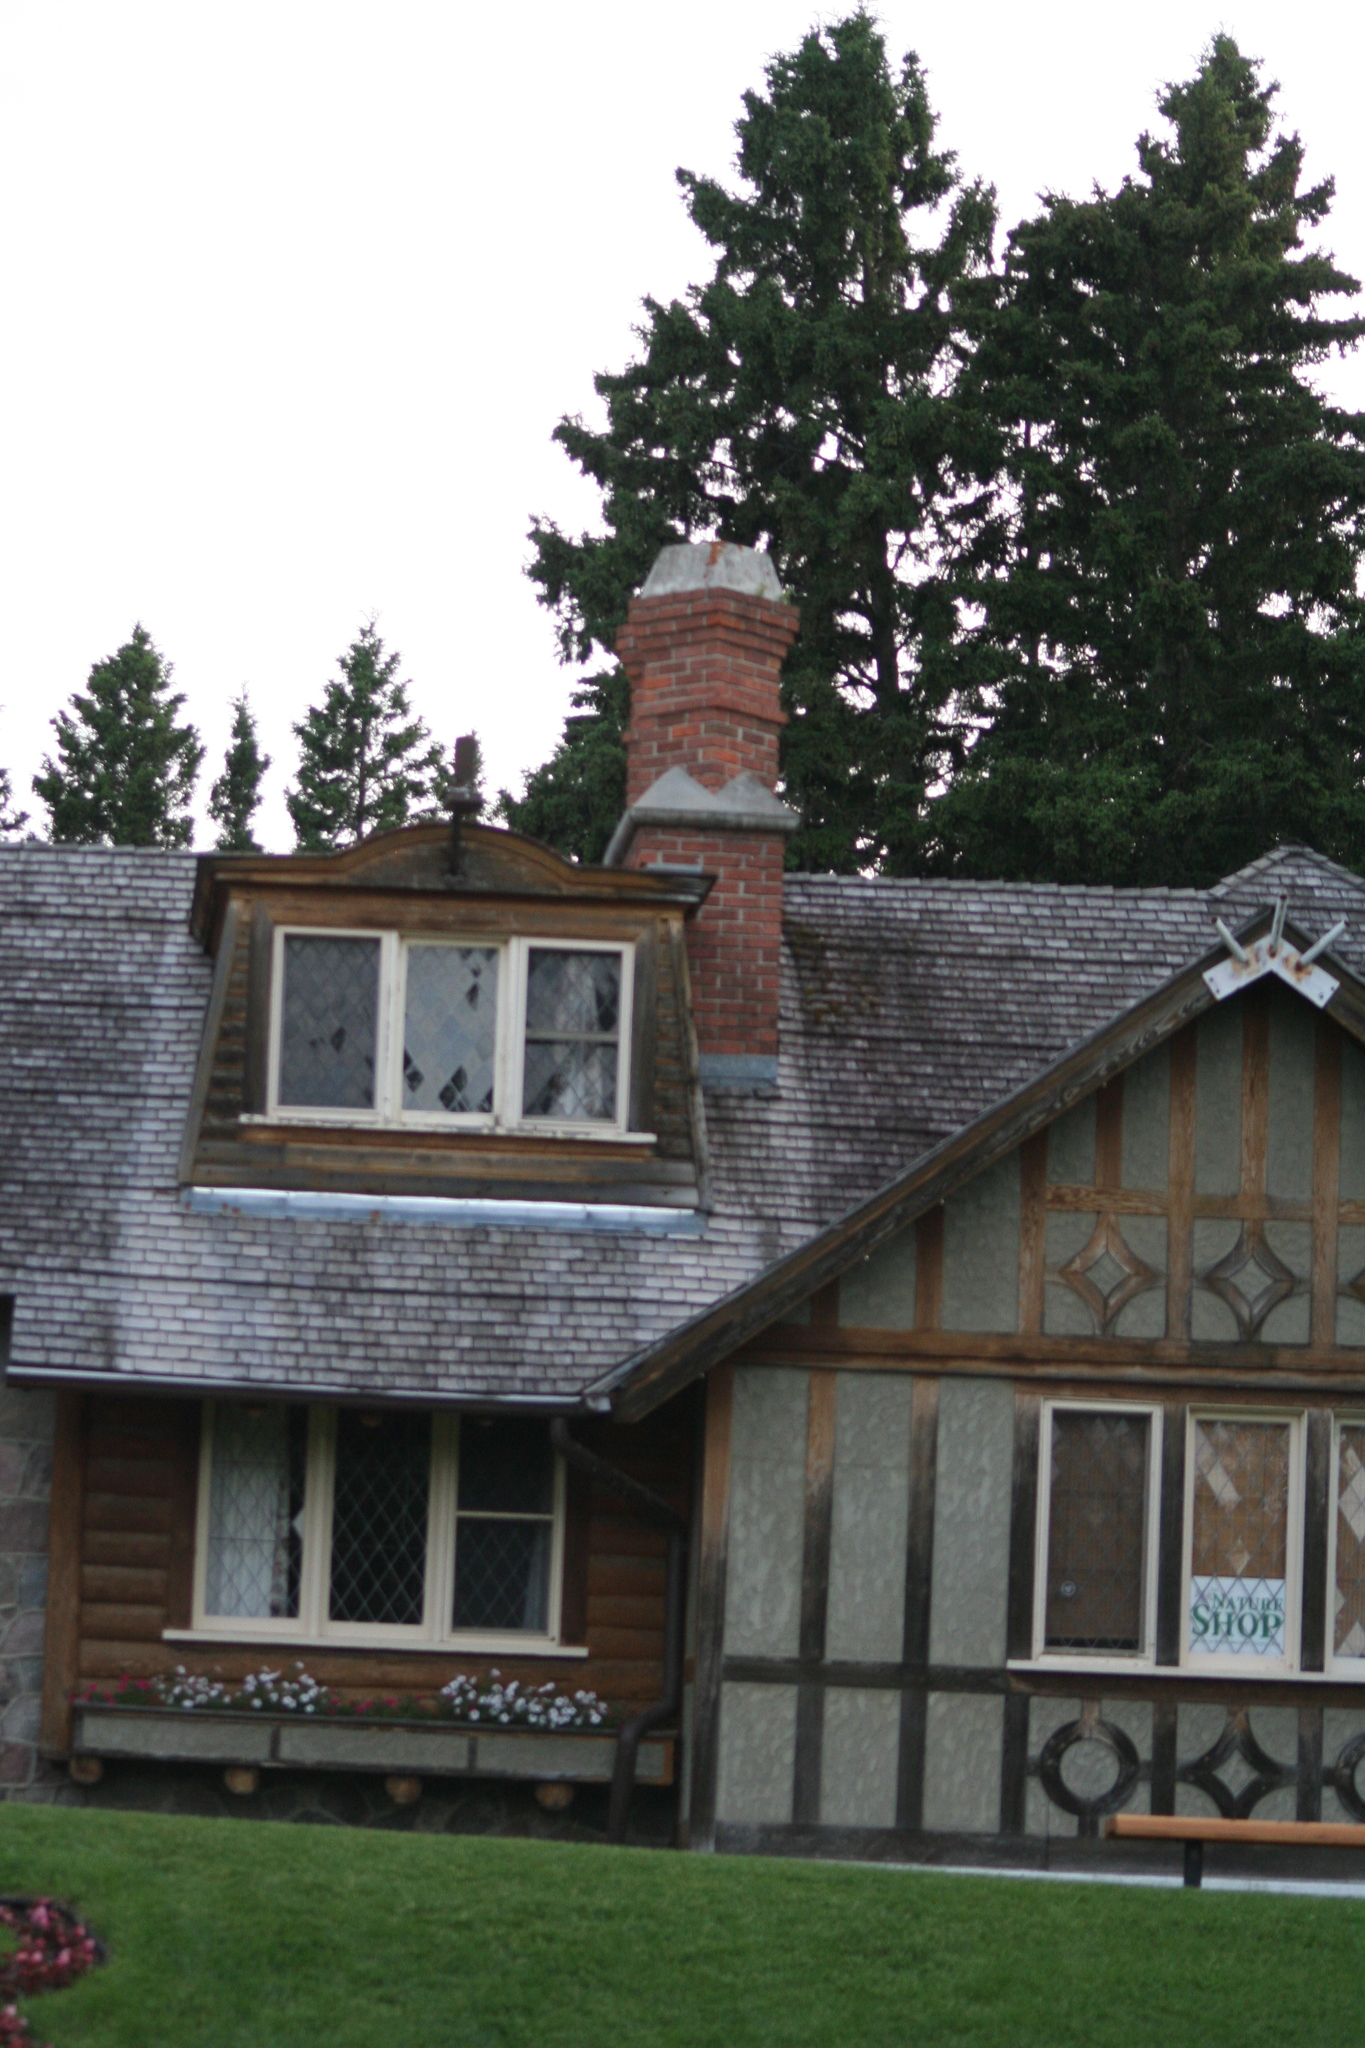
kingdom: Animalia
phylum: Chordata
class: Aves
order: Apodiformes
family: Apodidae
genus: Chaetura
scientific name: Chaetura pelagica
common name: Chimney swift
